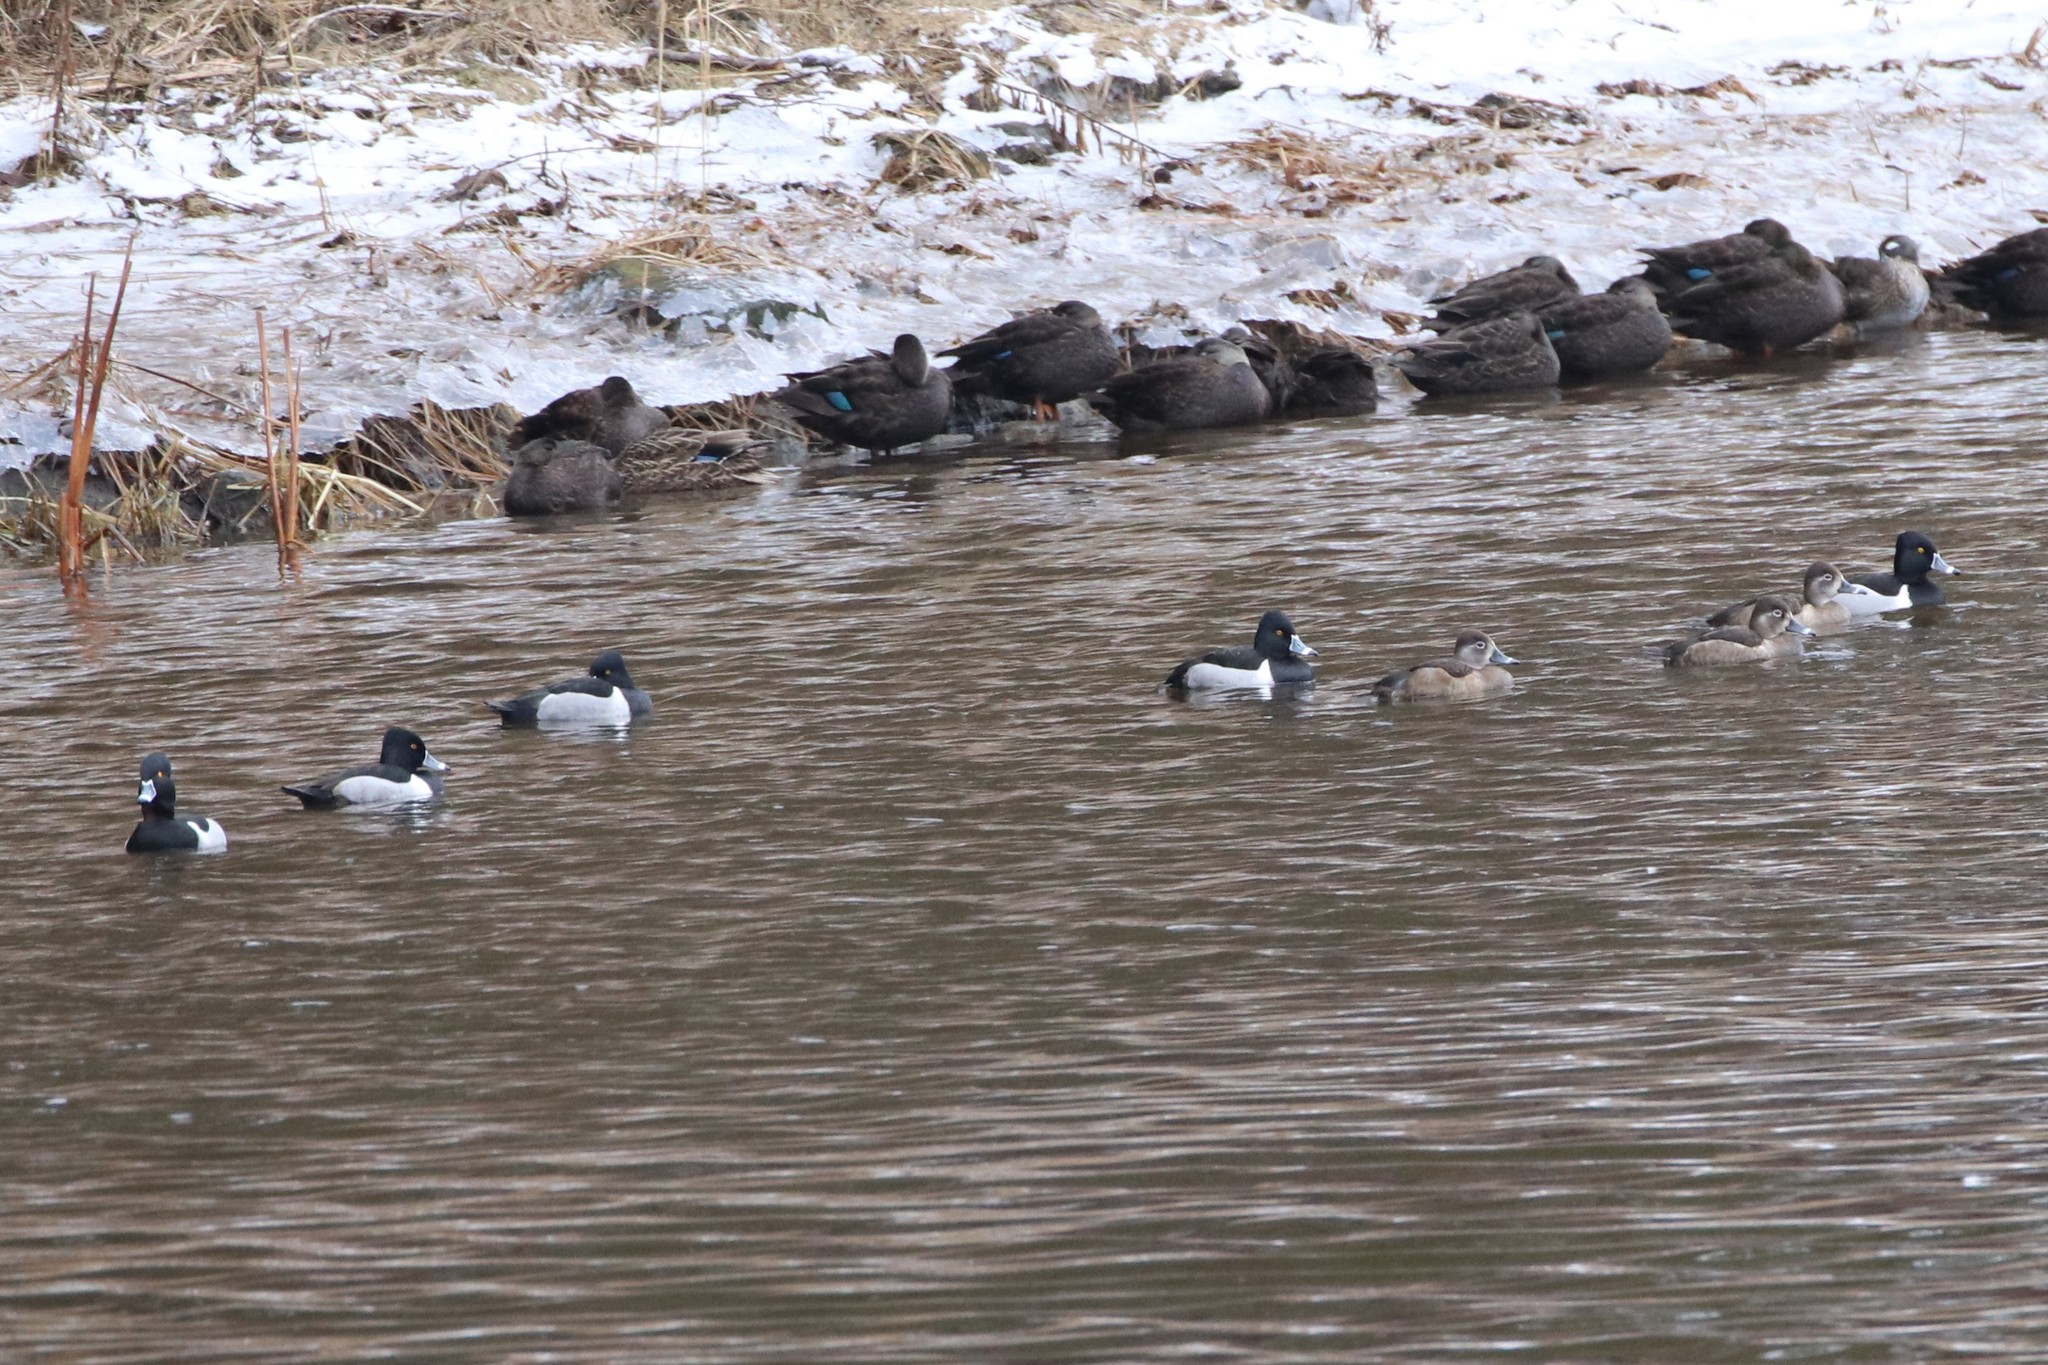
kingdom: Animalia
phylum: Chordata
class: Aves
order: Anseriformes
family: Anatidae
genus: Aythya
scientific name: Aythya collaris
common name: Ring-necked duck
